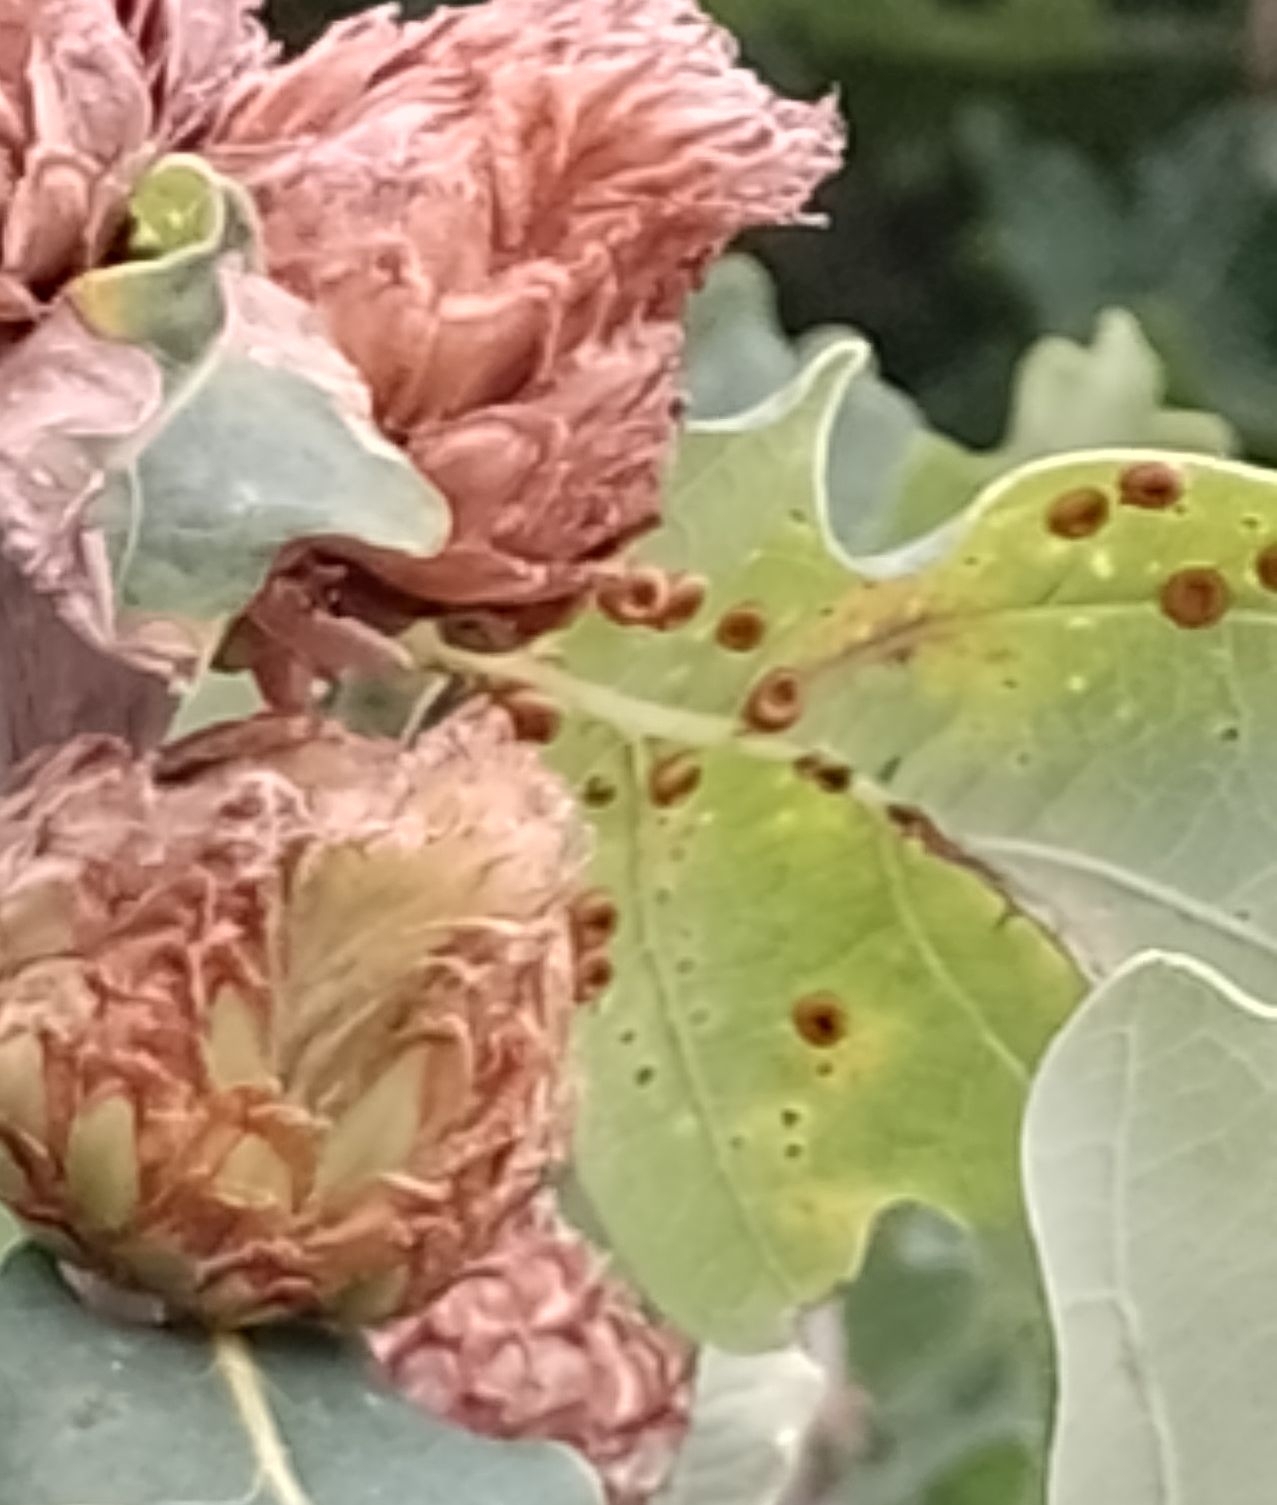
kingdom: Animalia
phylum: Arthropoda
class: Insecta
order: Hymenoptera
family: Cynipidae
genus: Neuroterus
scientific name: Neuroterus numismalis
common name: Silk-button spangle gall
